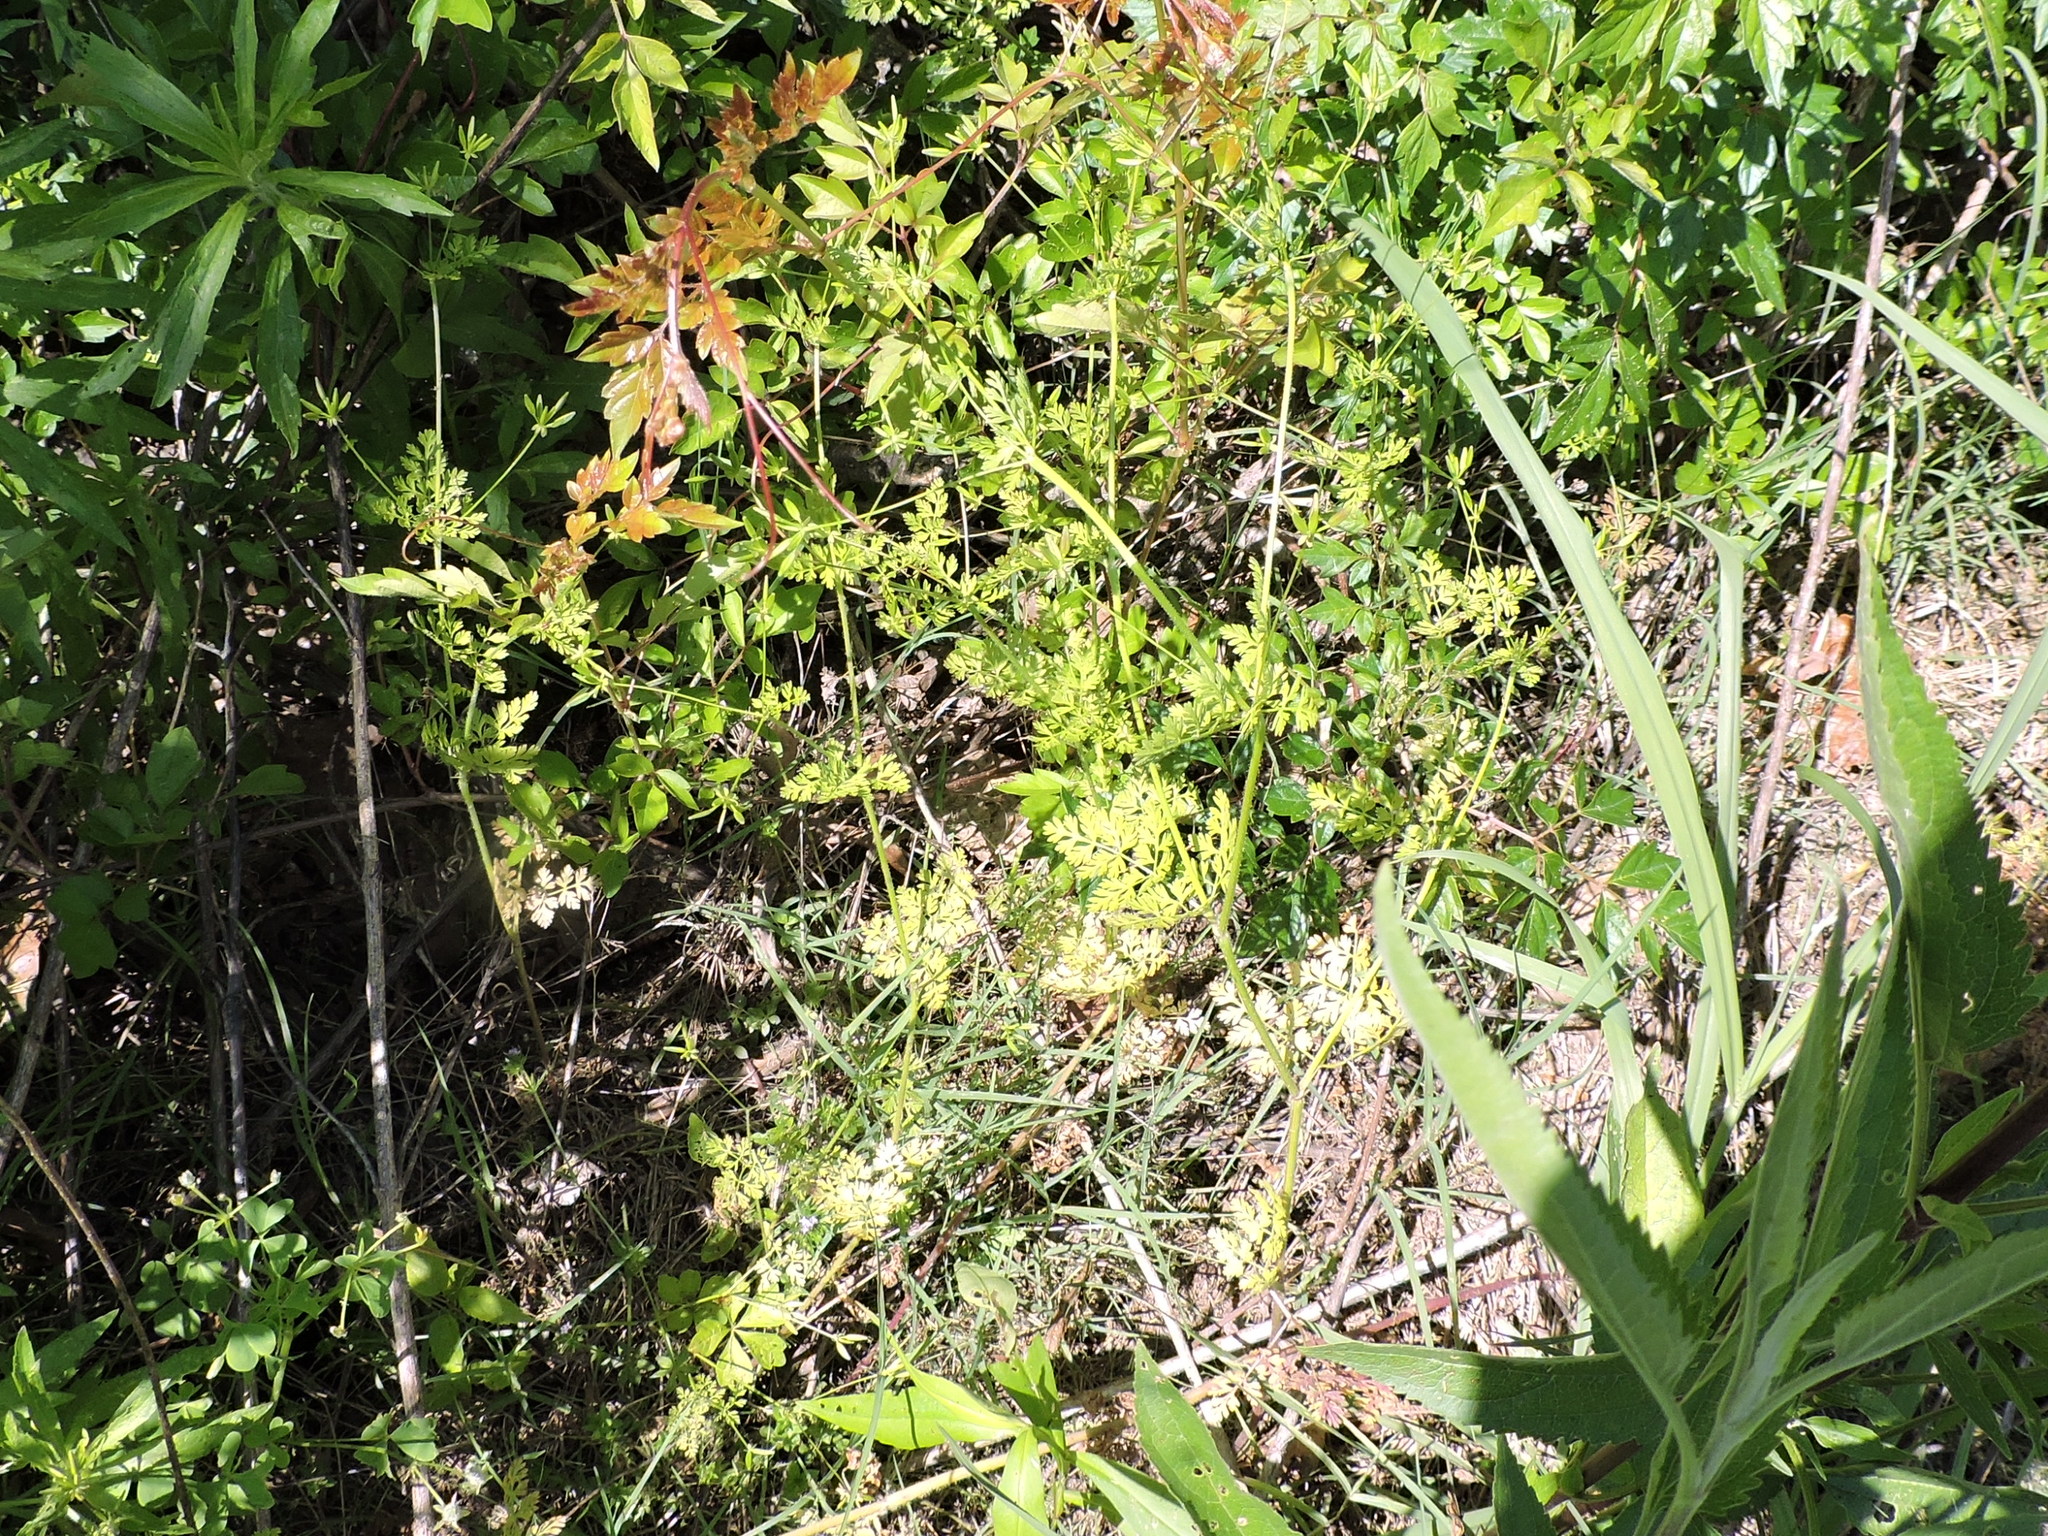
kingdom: Plantae
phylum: Tracheophyta
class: Magnoliopsida
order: Apiales
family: Apiaceae
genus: Chaerophyllum
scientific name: Chaerophyllum tainturieri
